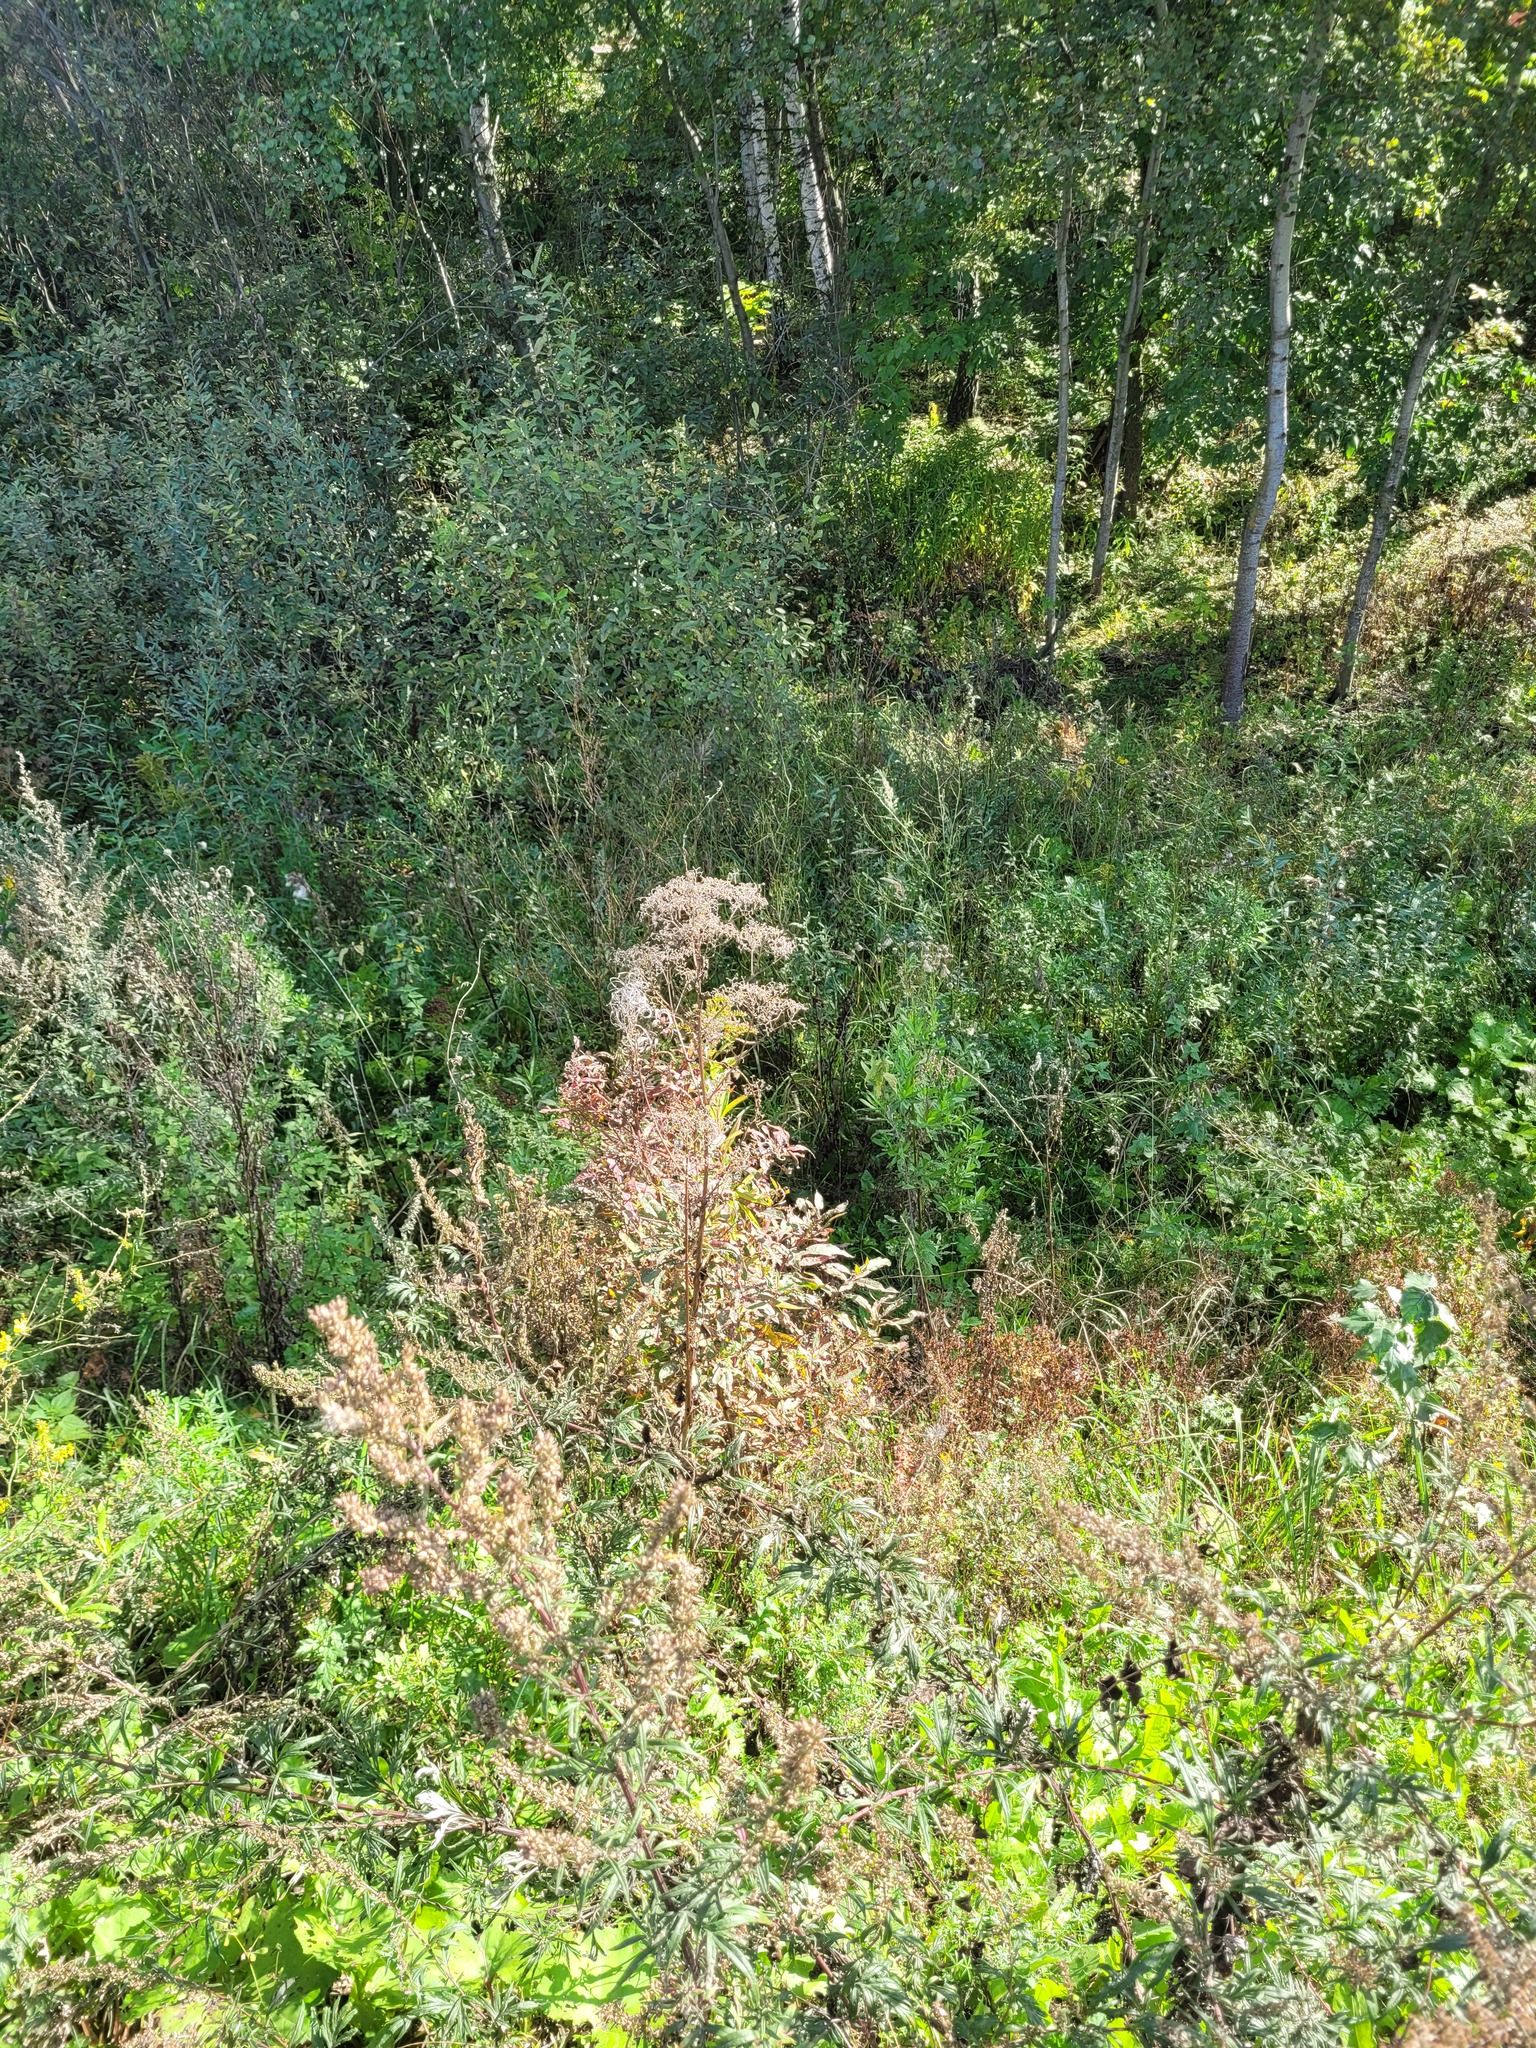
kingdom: Plantae
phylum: Tracheophyta
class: Magnoliopsida
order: Dipsacales
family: Caprifoliaceae
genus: Valeriana
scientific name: Valeriana officinalis
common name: Common valerian
